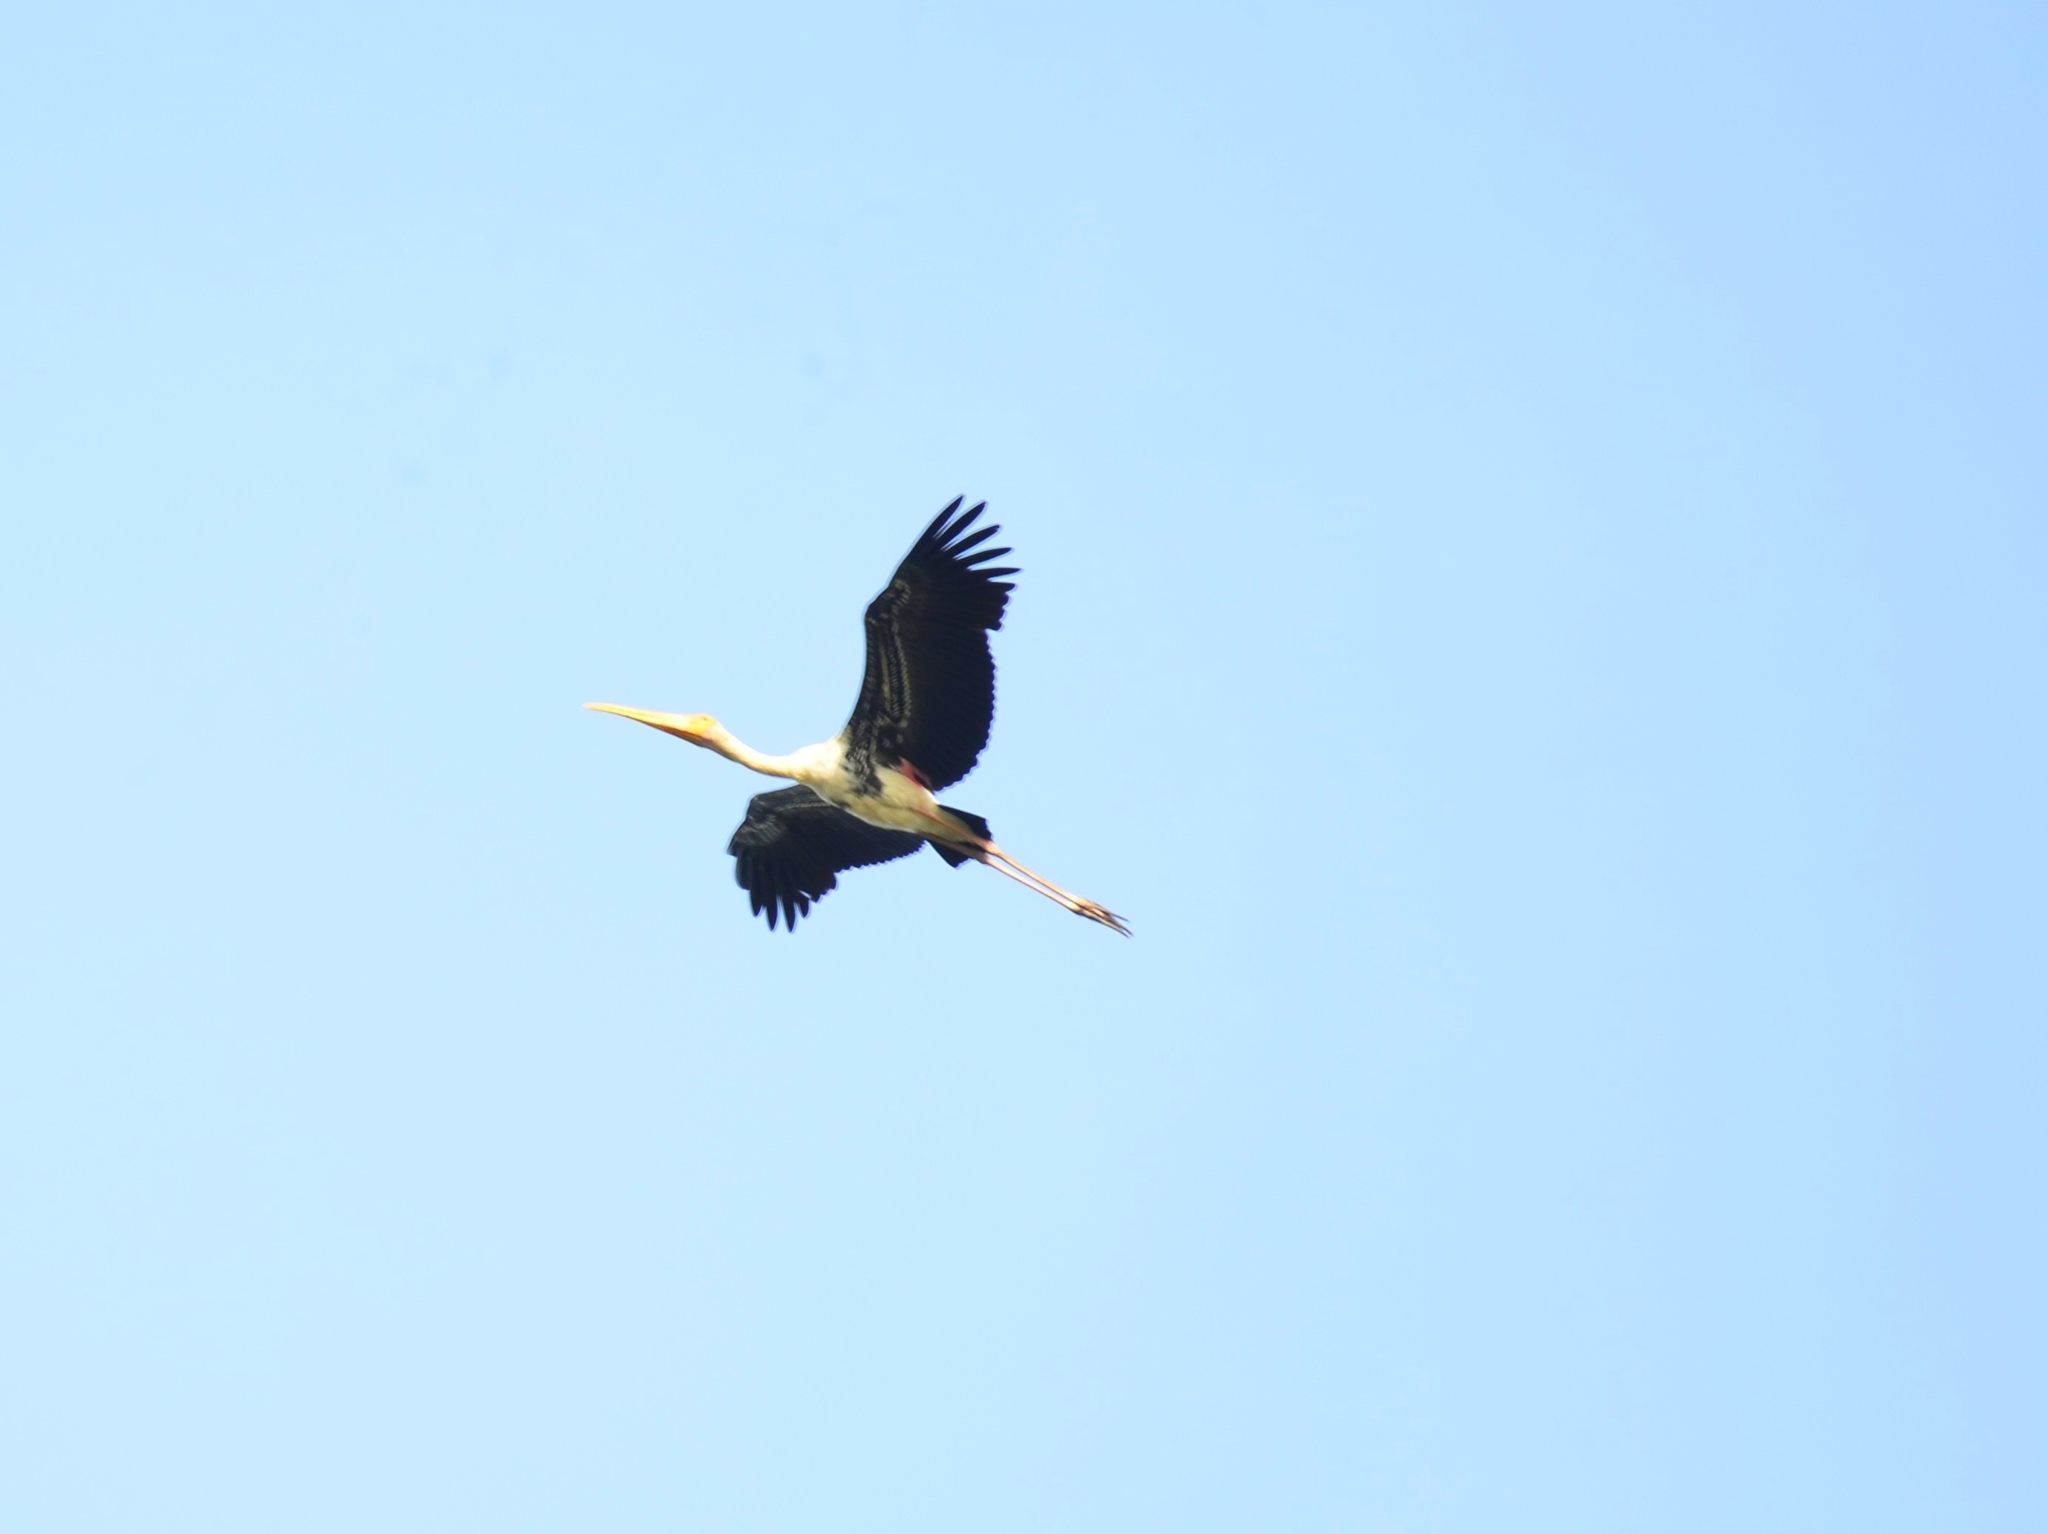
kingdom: Animalia
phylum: Chordata
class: Aves
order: Ciconiiformes
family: Ciconiidae
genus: Mycteria
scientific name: Mycteria leucocephala
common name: Painted stork
